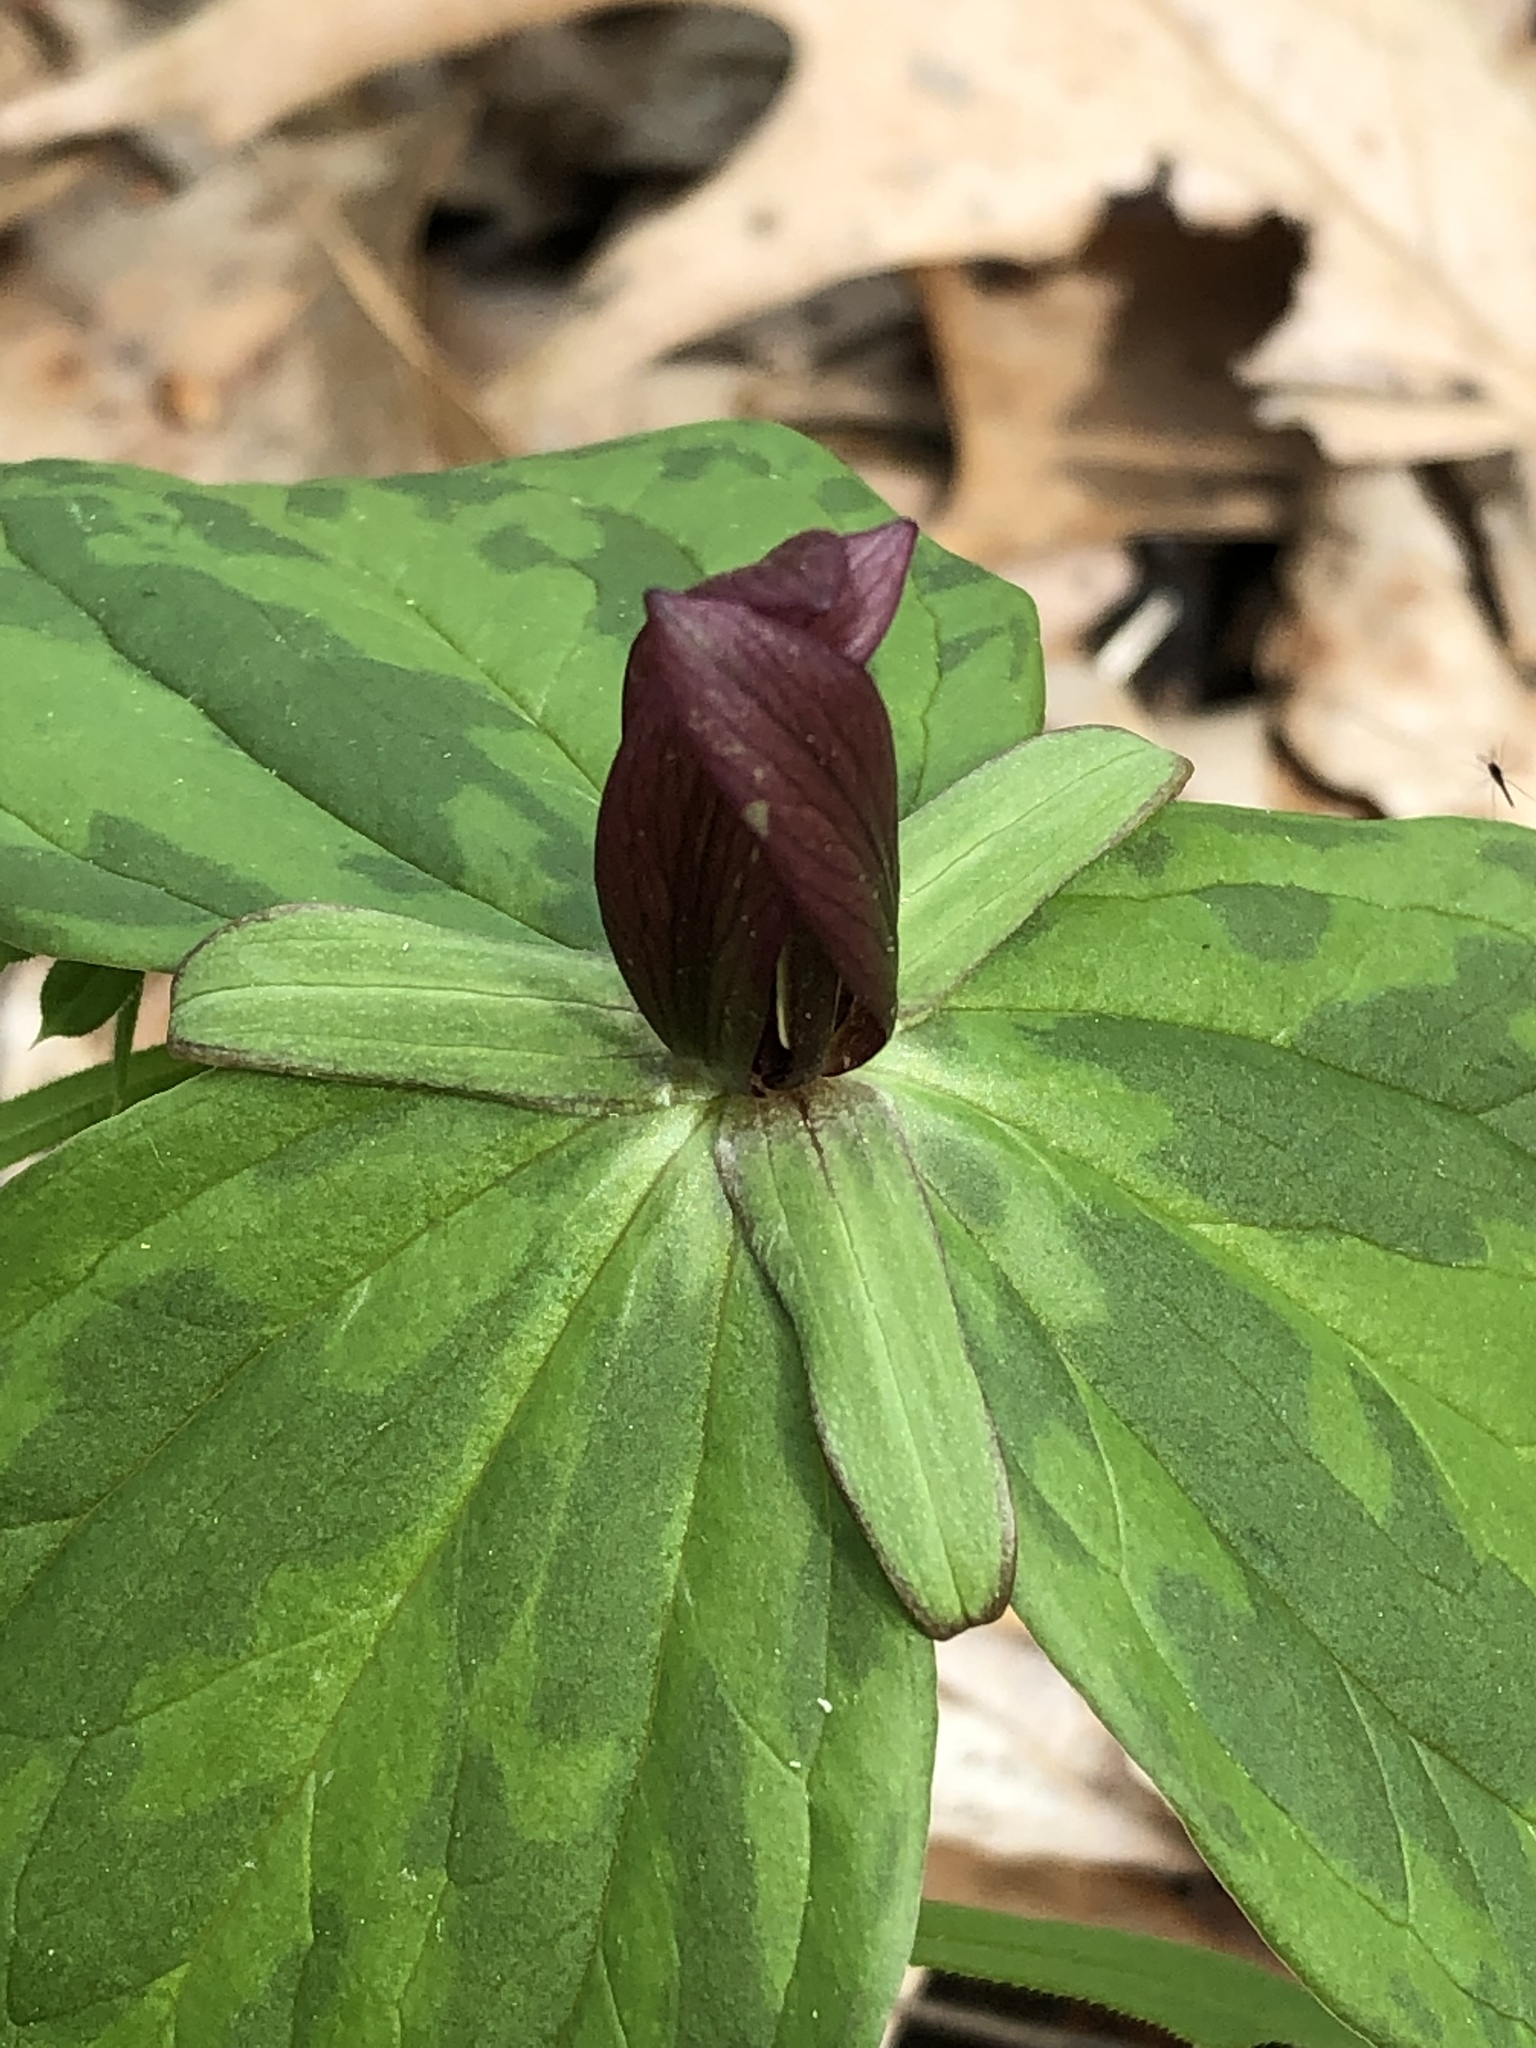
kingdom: Plantae
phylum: Tracheophyta
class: Liliopsida
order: Liliales
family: Melanthiaceae
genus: Trillium
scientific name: Trillium sessile
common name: Sessile trillium
